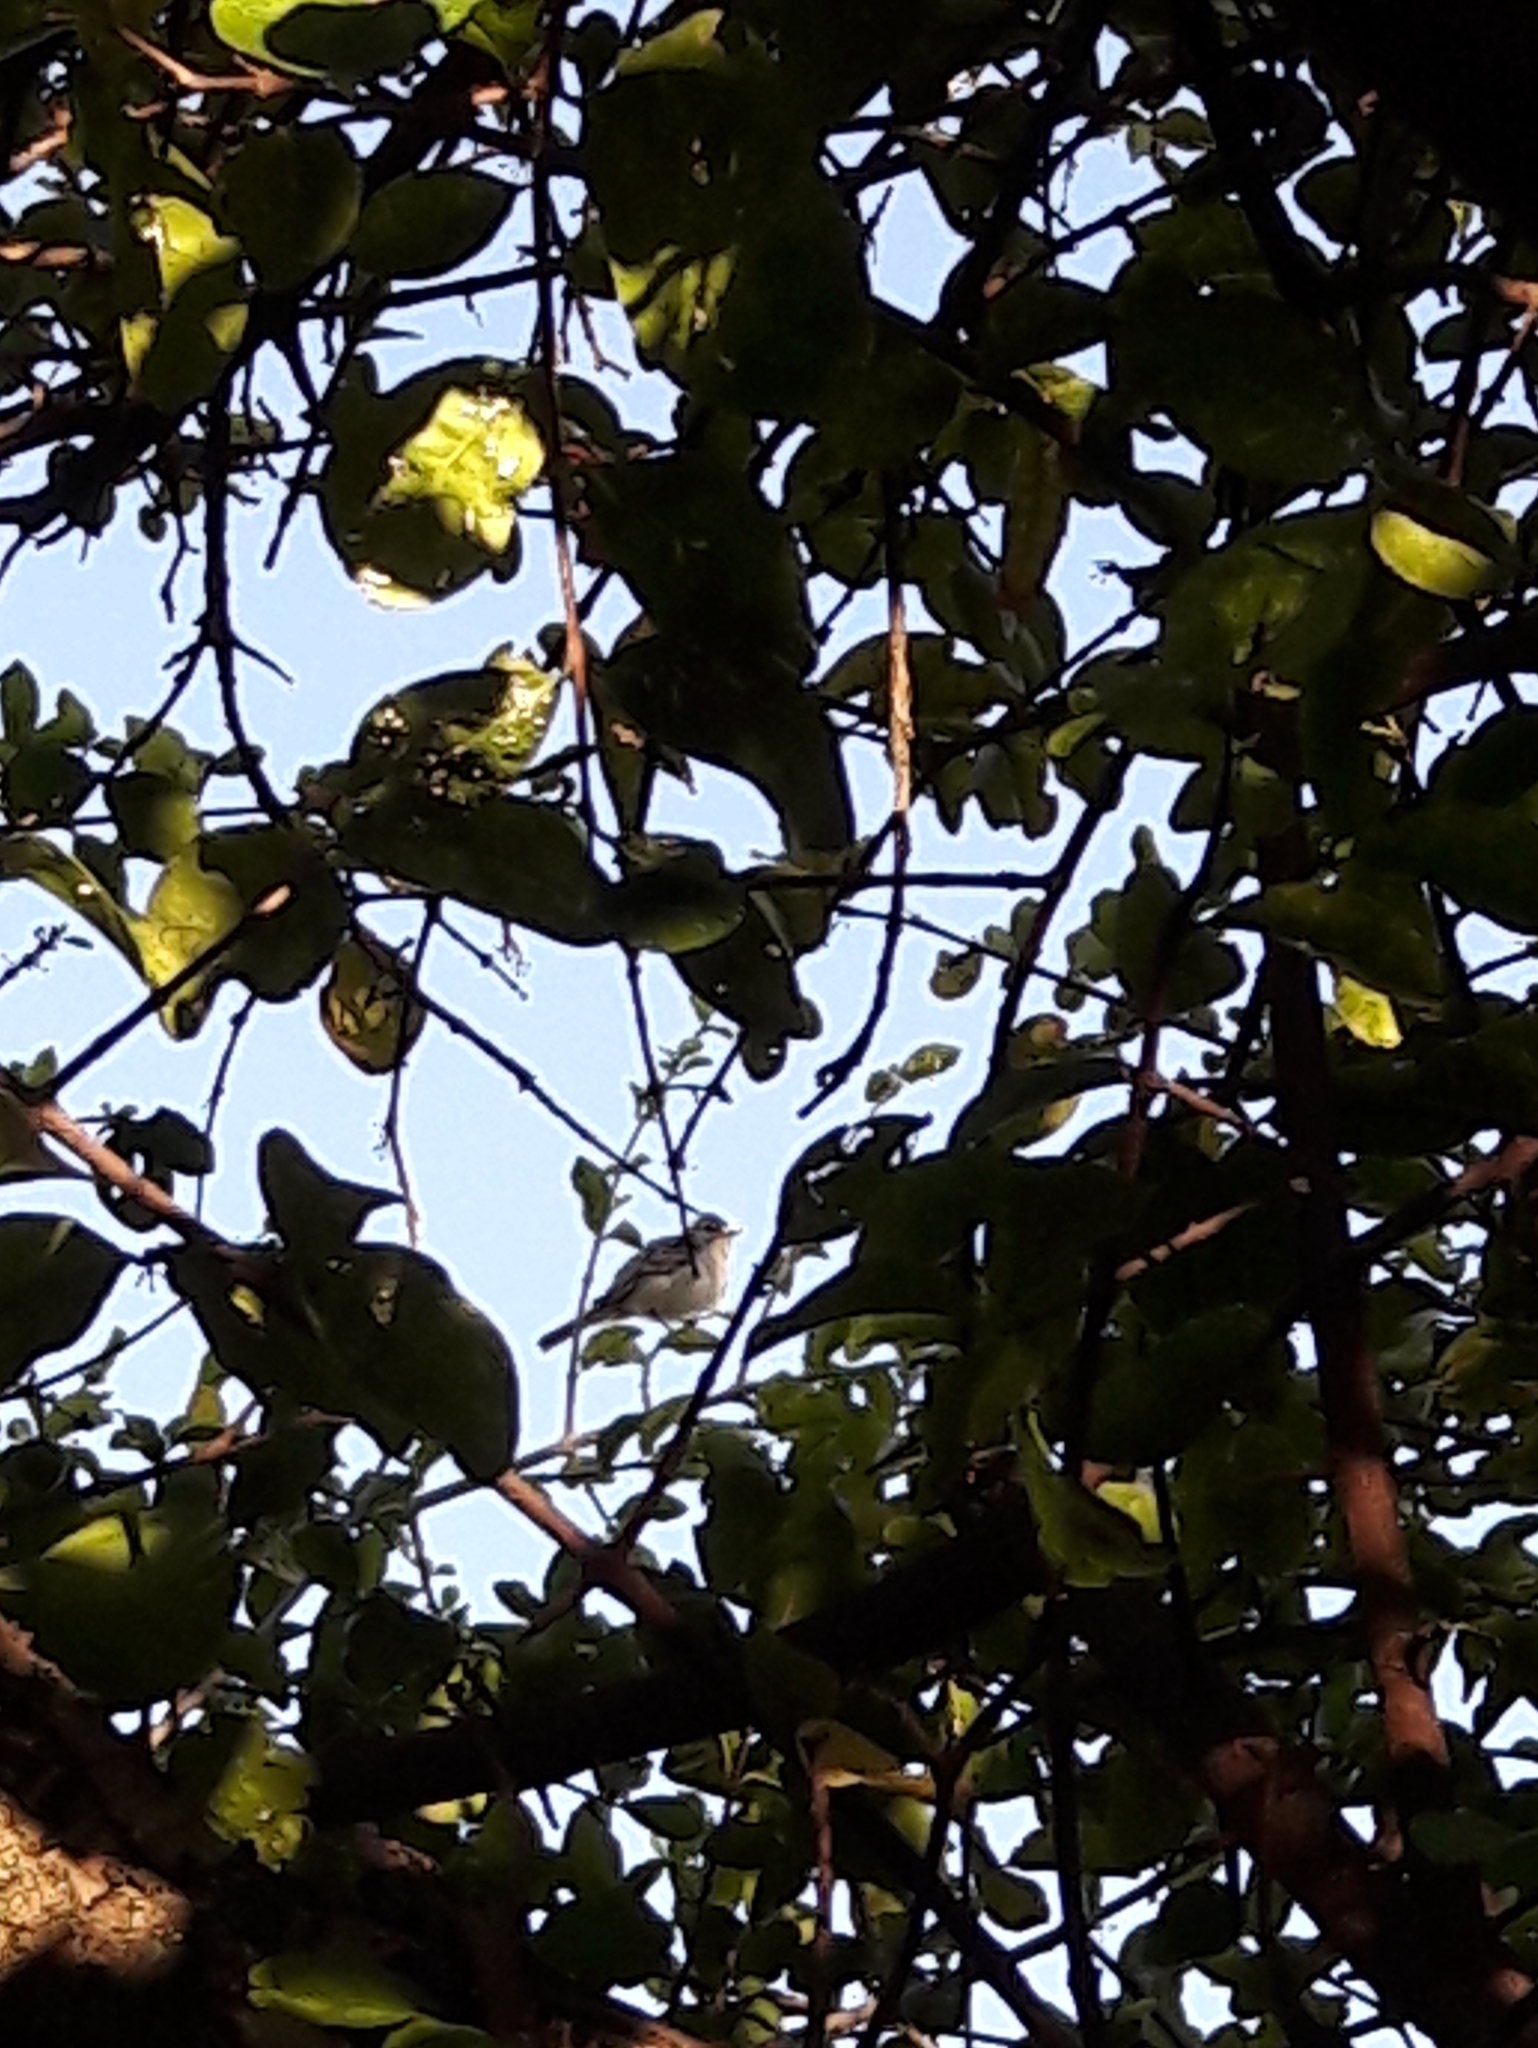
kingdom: Animalia
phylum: Chordata
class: Aves
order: Passeriformes
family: Tyrannidae
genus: Camptostoma
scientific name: Camptostoma obsoletum
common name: Southern beardless-tyrannulet
